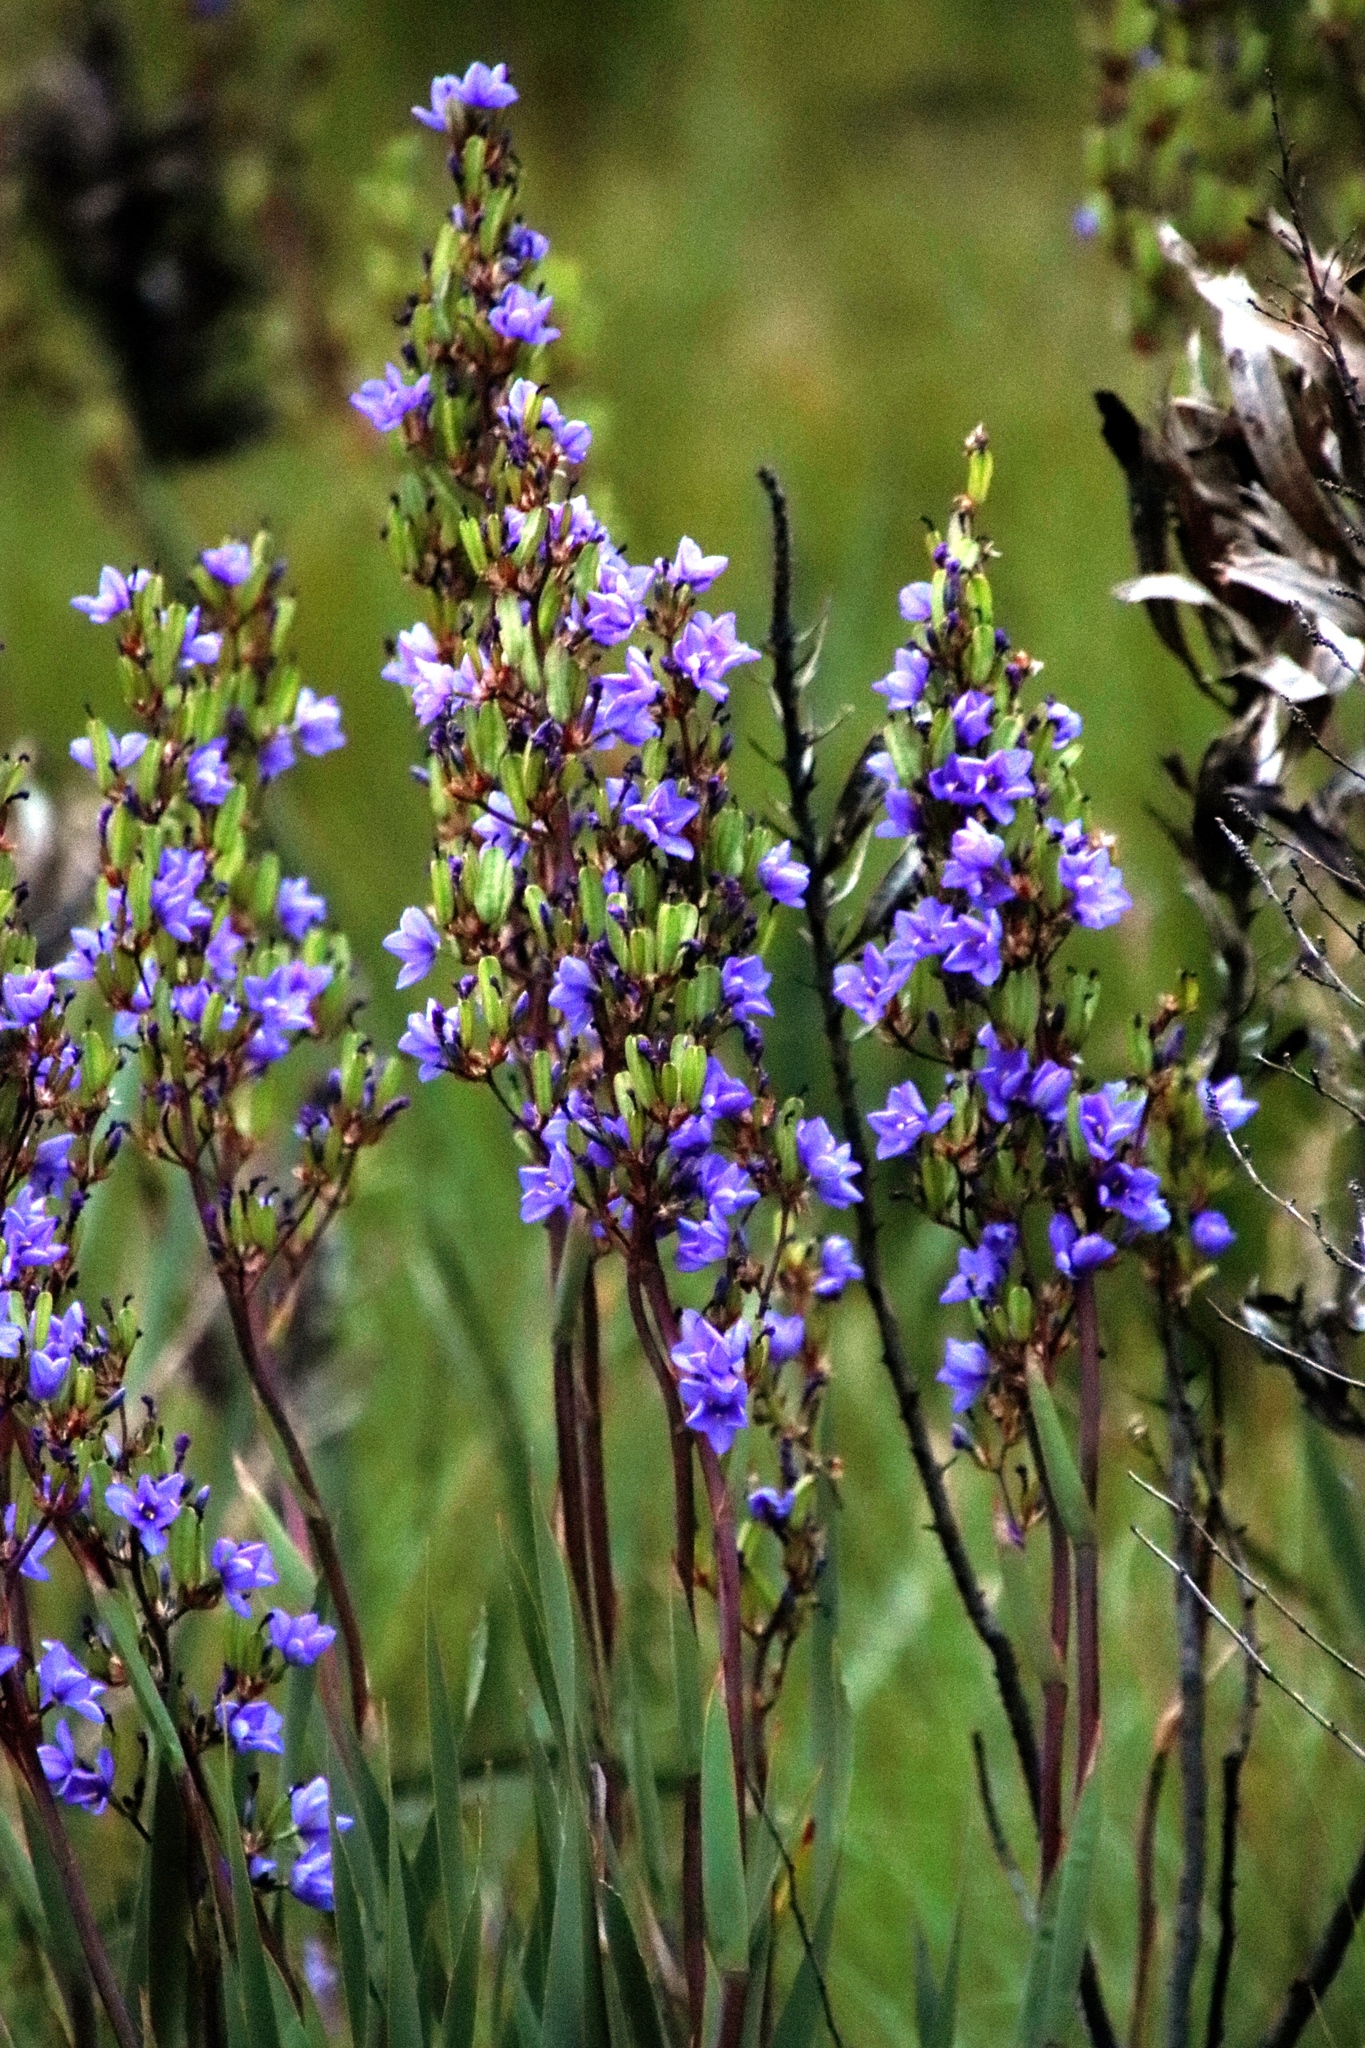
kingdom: Plantae
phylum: Tracheophyta
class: Liliopsida
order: Asparagales
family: Iridaceae
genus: Aristea
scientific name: Aristea bakeri
